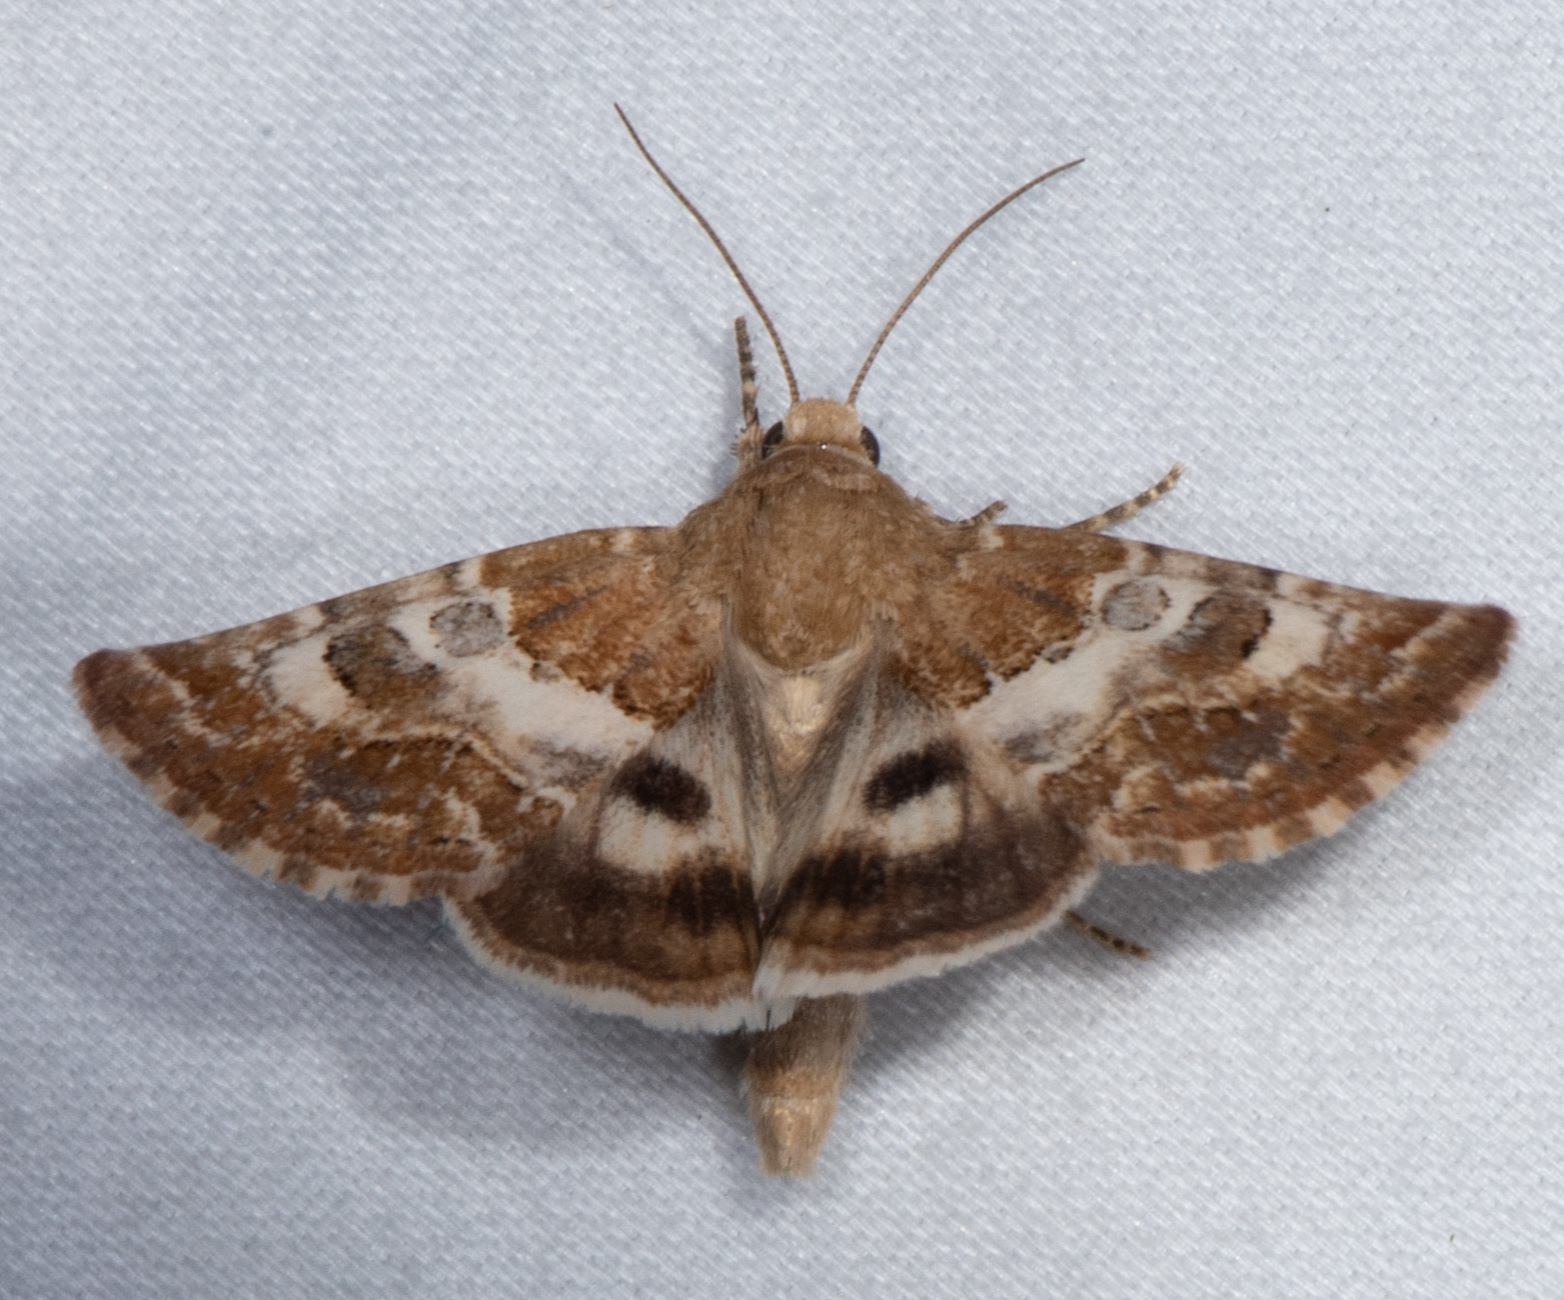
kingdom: Animalia
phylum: Arthropoda
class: Insecta
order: Lepidoptera
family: Noctuidae
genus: Schinia
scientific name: Schinia albafascia
